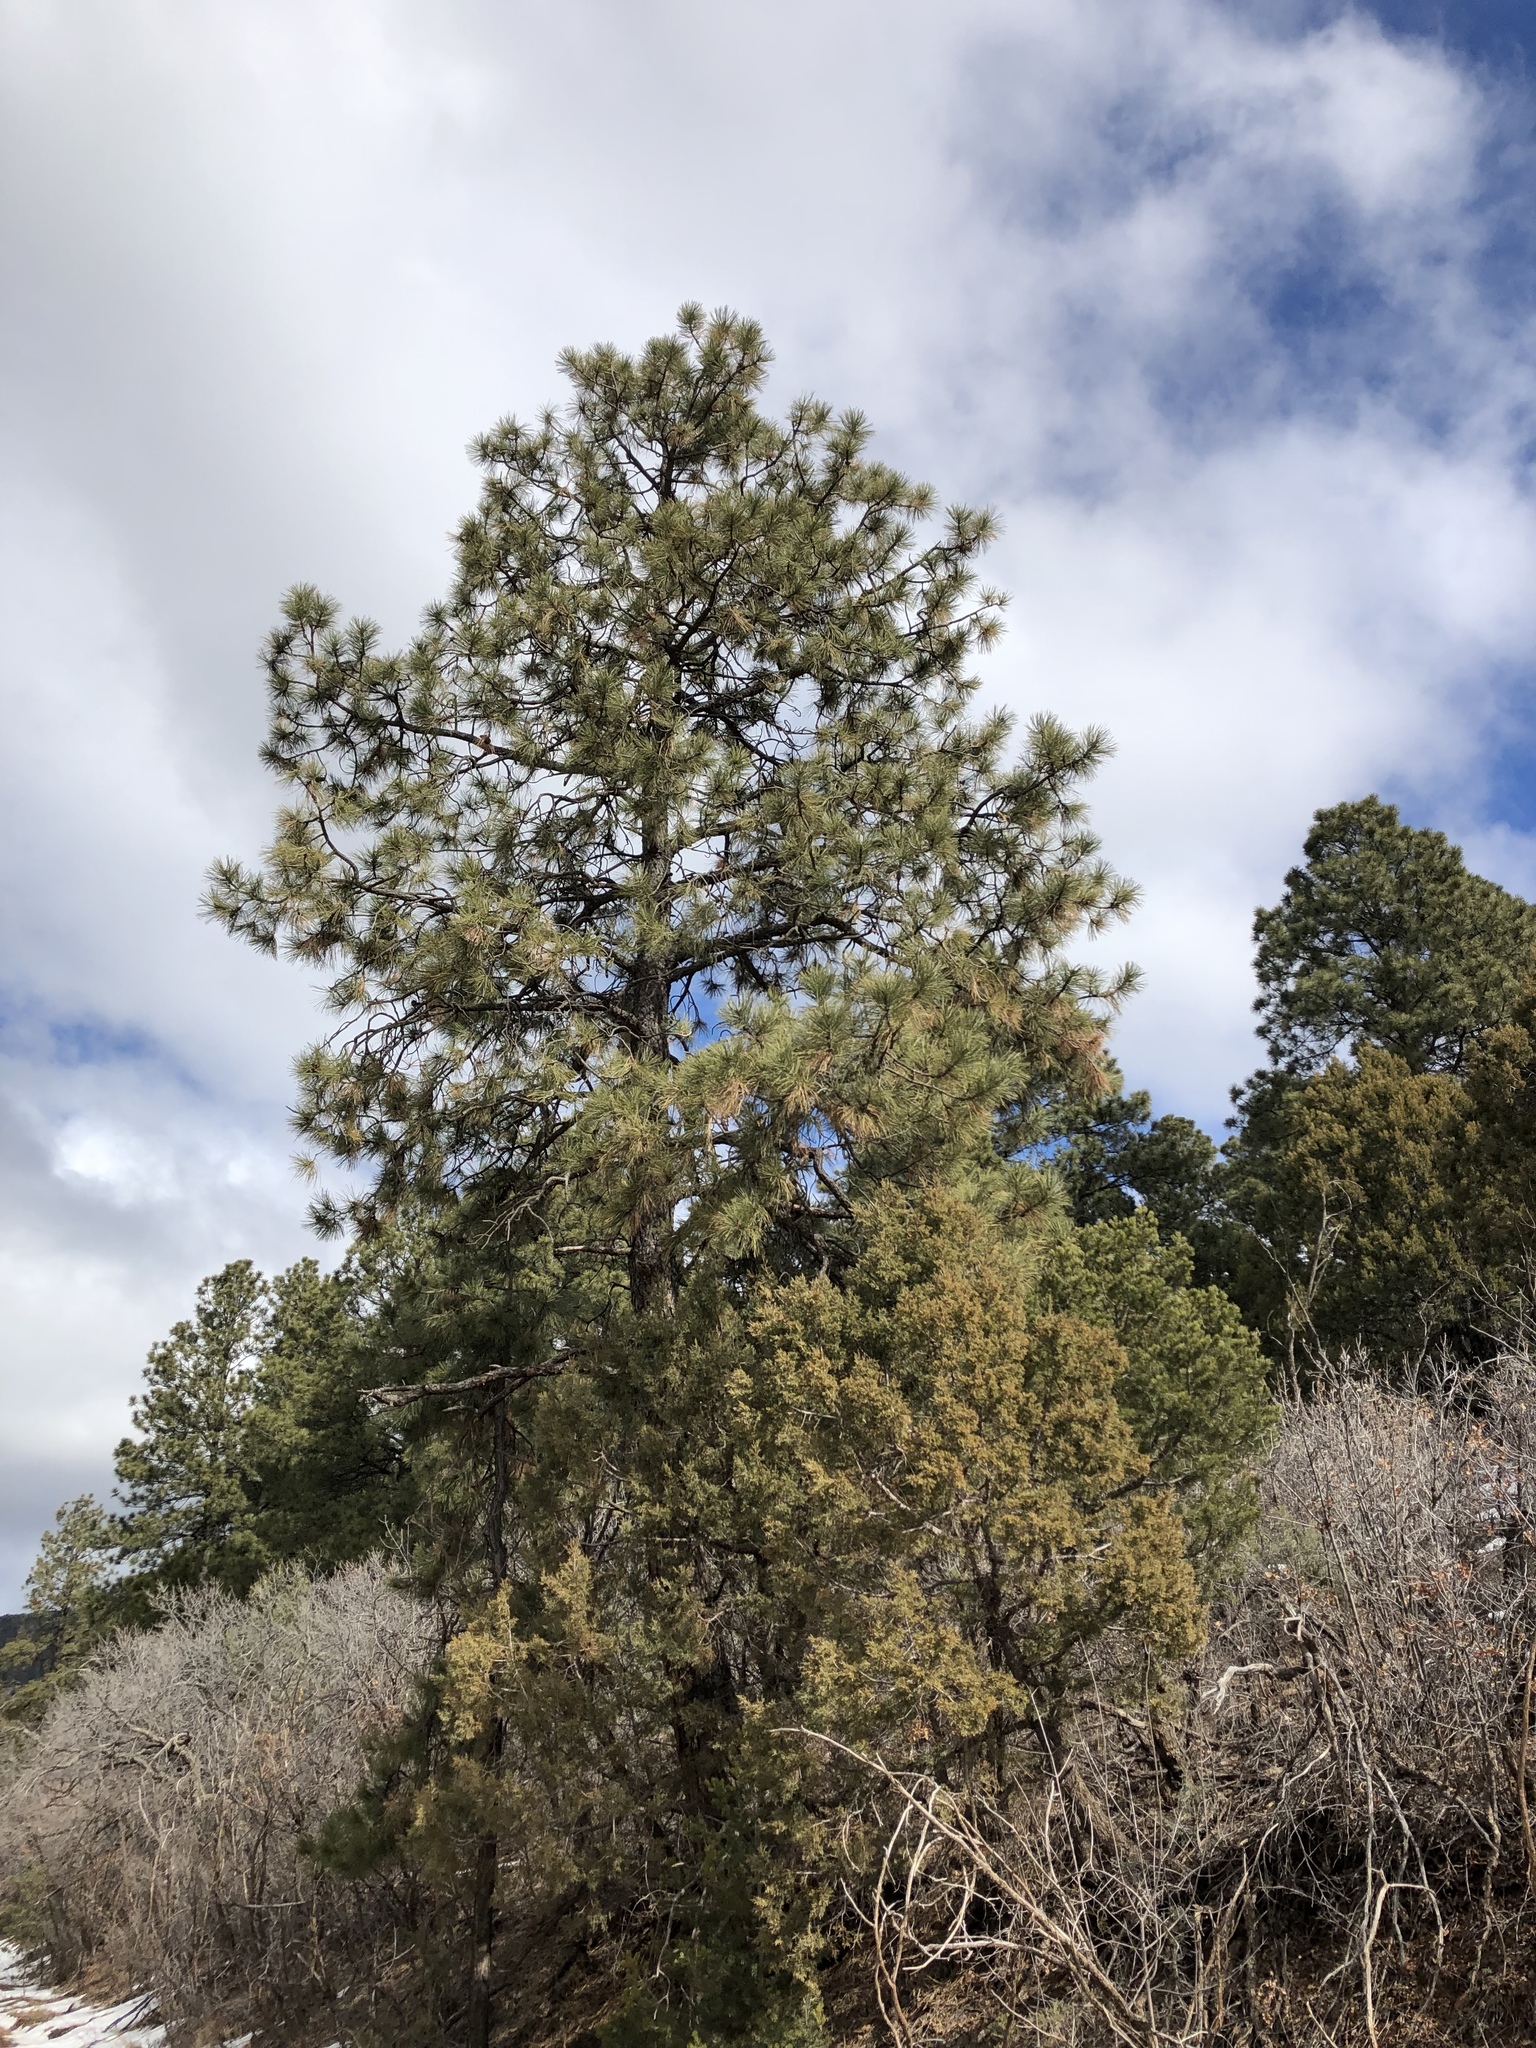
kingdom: Plantae
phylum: Tracheophyta
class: Pinopsida
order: Pinales
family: Pinaceae
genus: Pinus
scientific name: Pinus ponderosa
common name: Western yellow-pine
